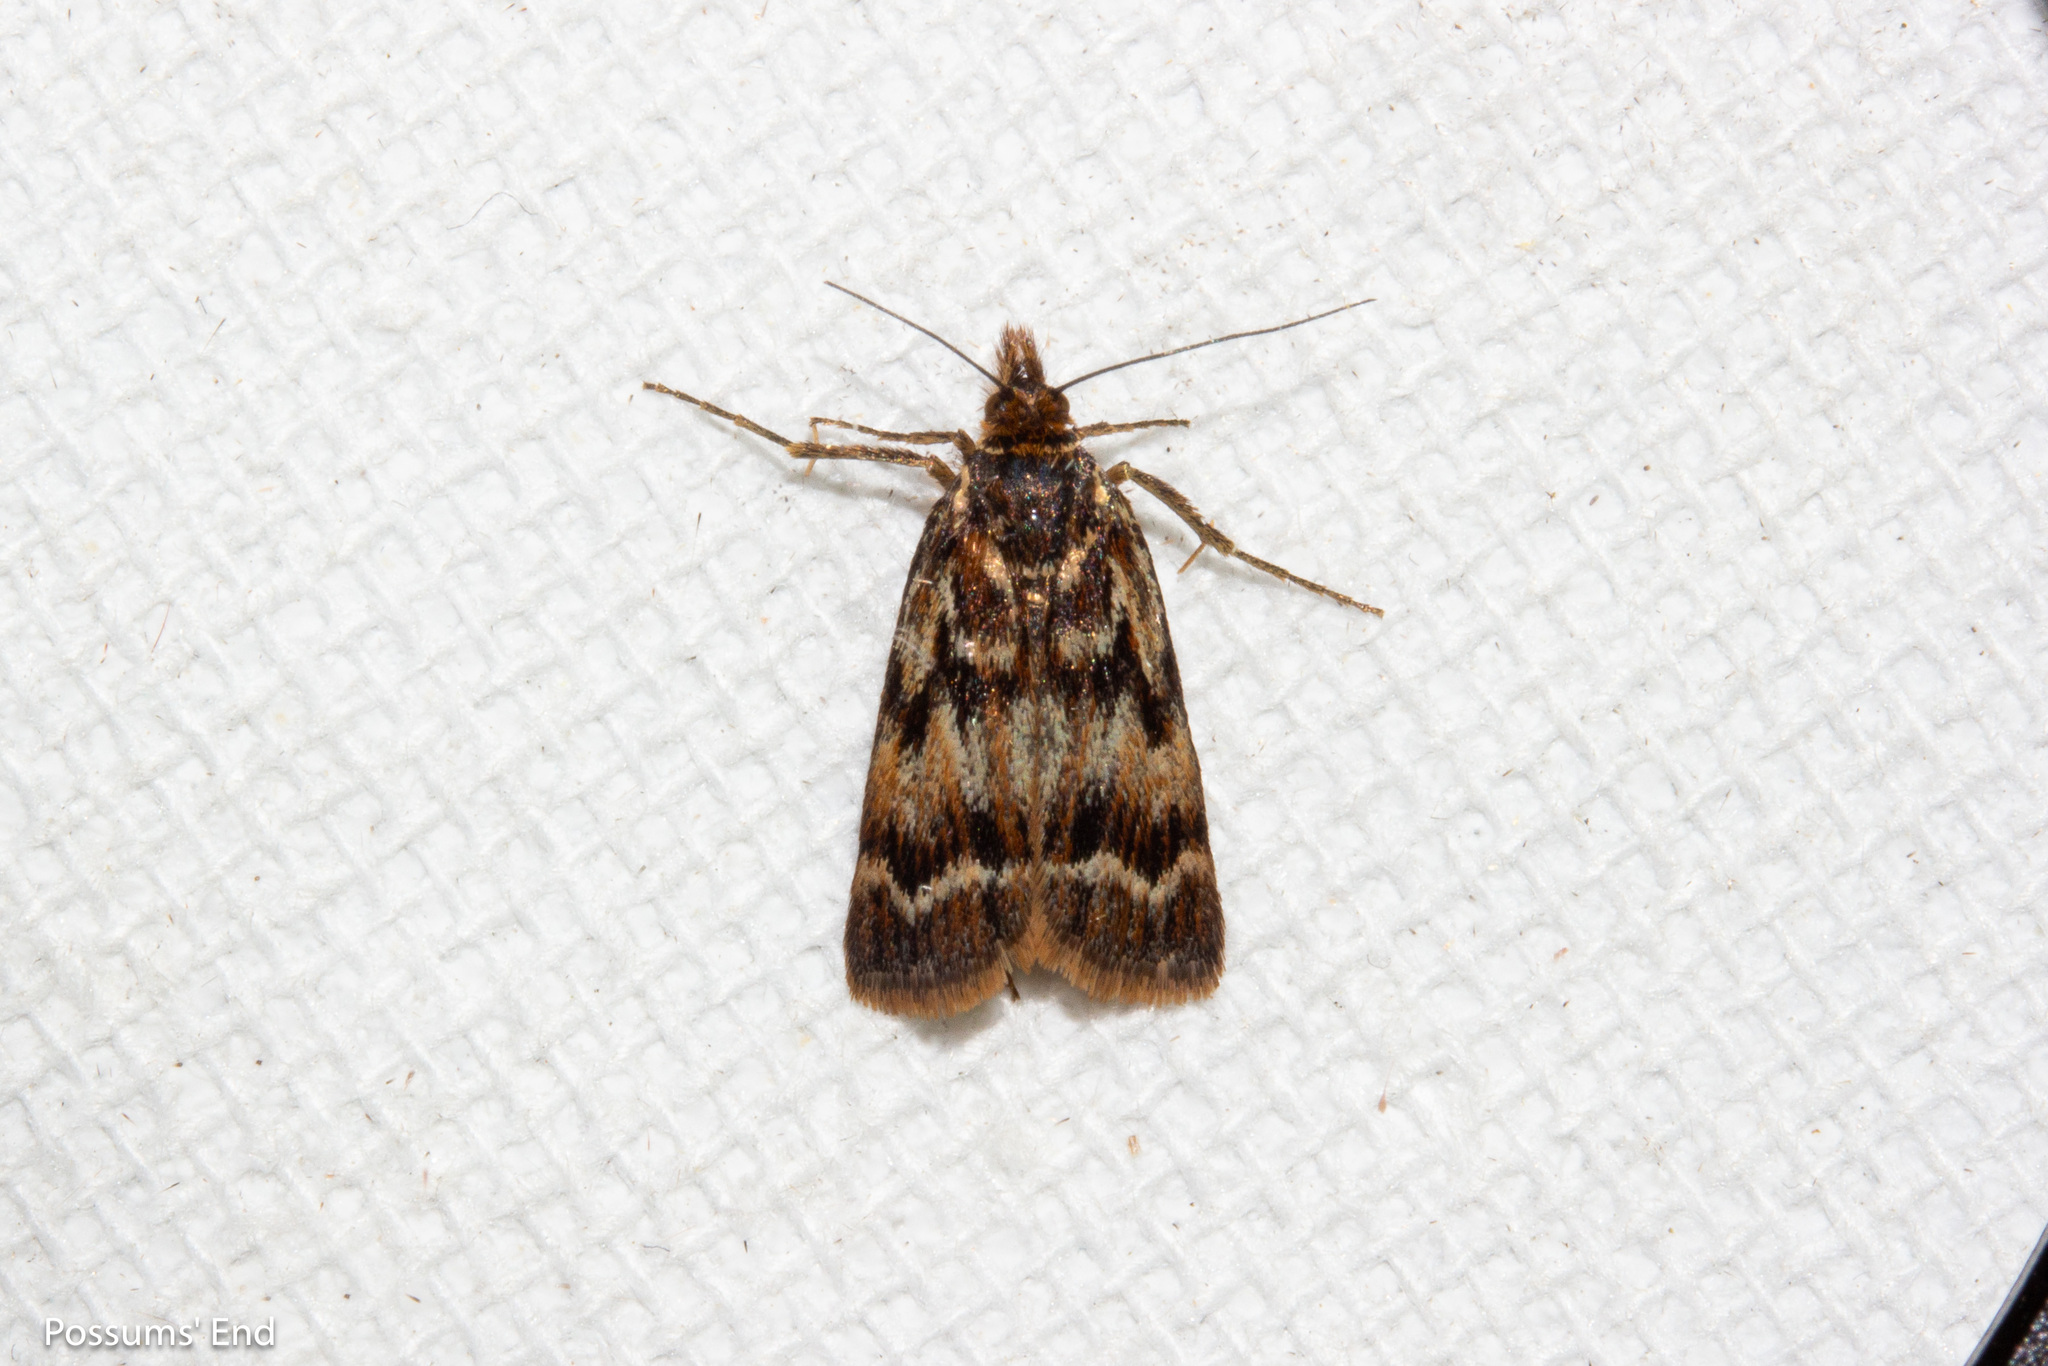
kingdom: Animalia
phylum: Arthropoda
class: Insecta
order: Lepidoptera
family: Crambidae
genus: Orocrambus
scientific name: Orocrambus scoparioides
